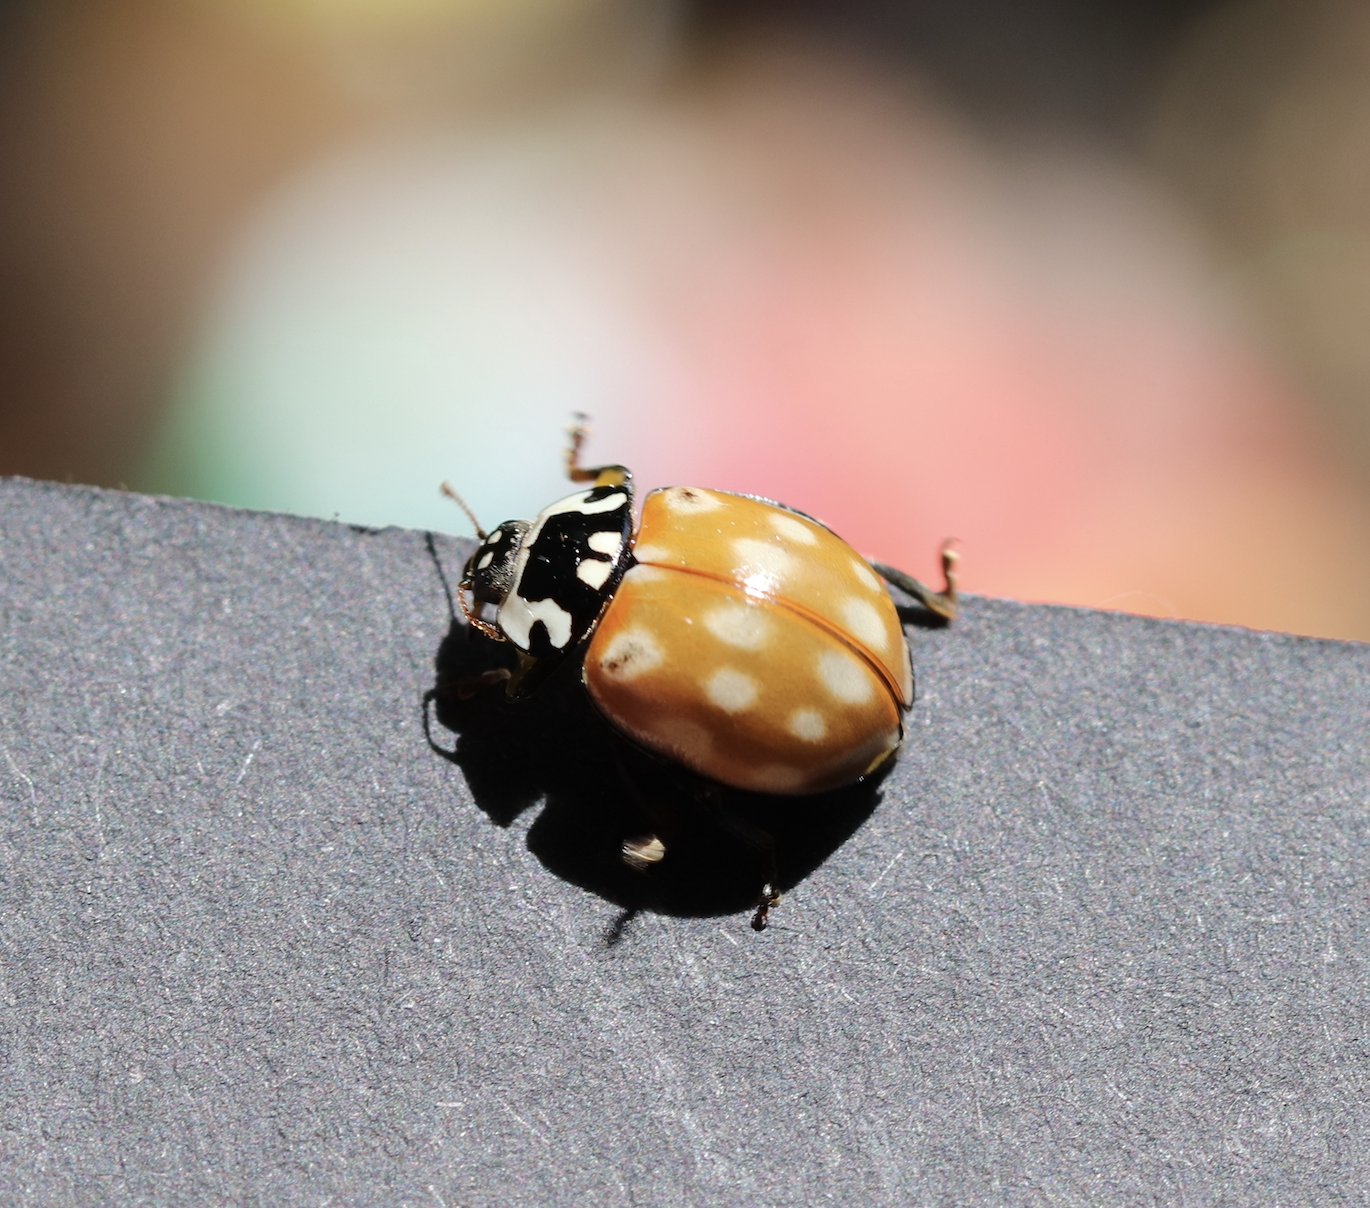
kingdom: Animalia
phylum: Arthropoda
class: Insecta
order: Coleoptera
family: Coccinellidae
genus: Anatis
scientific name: Anatis ocellata
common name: Eyed ladybird
